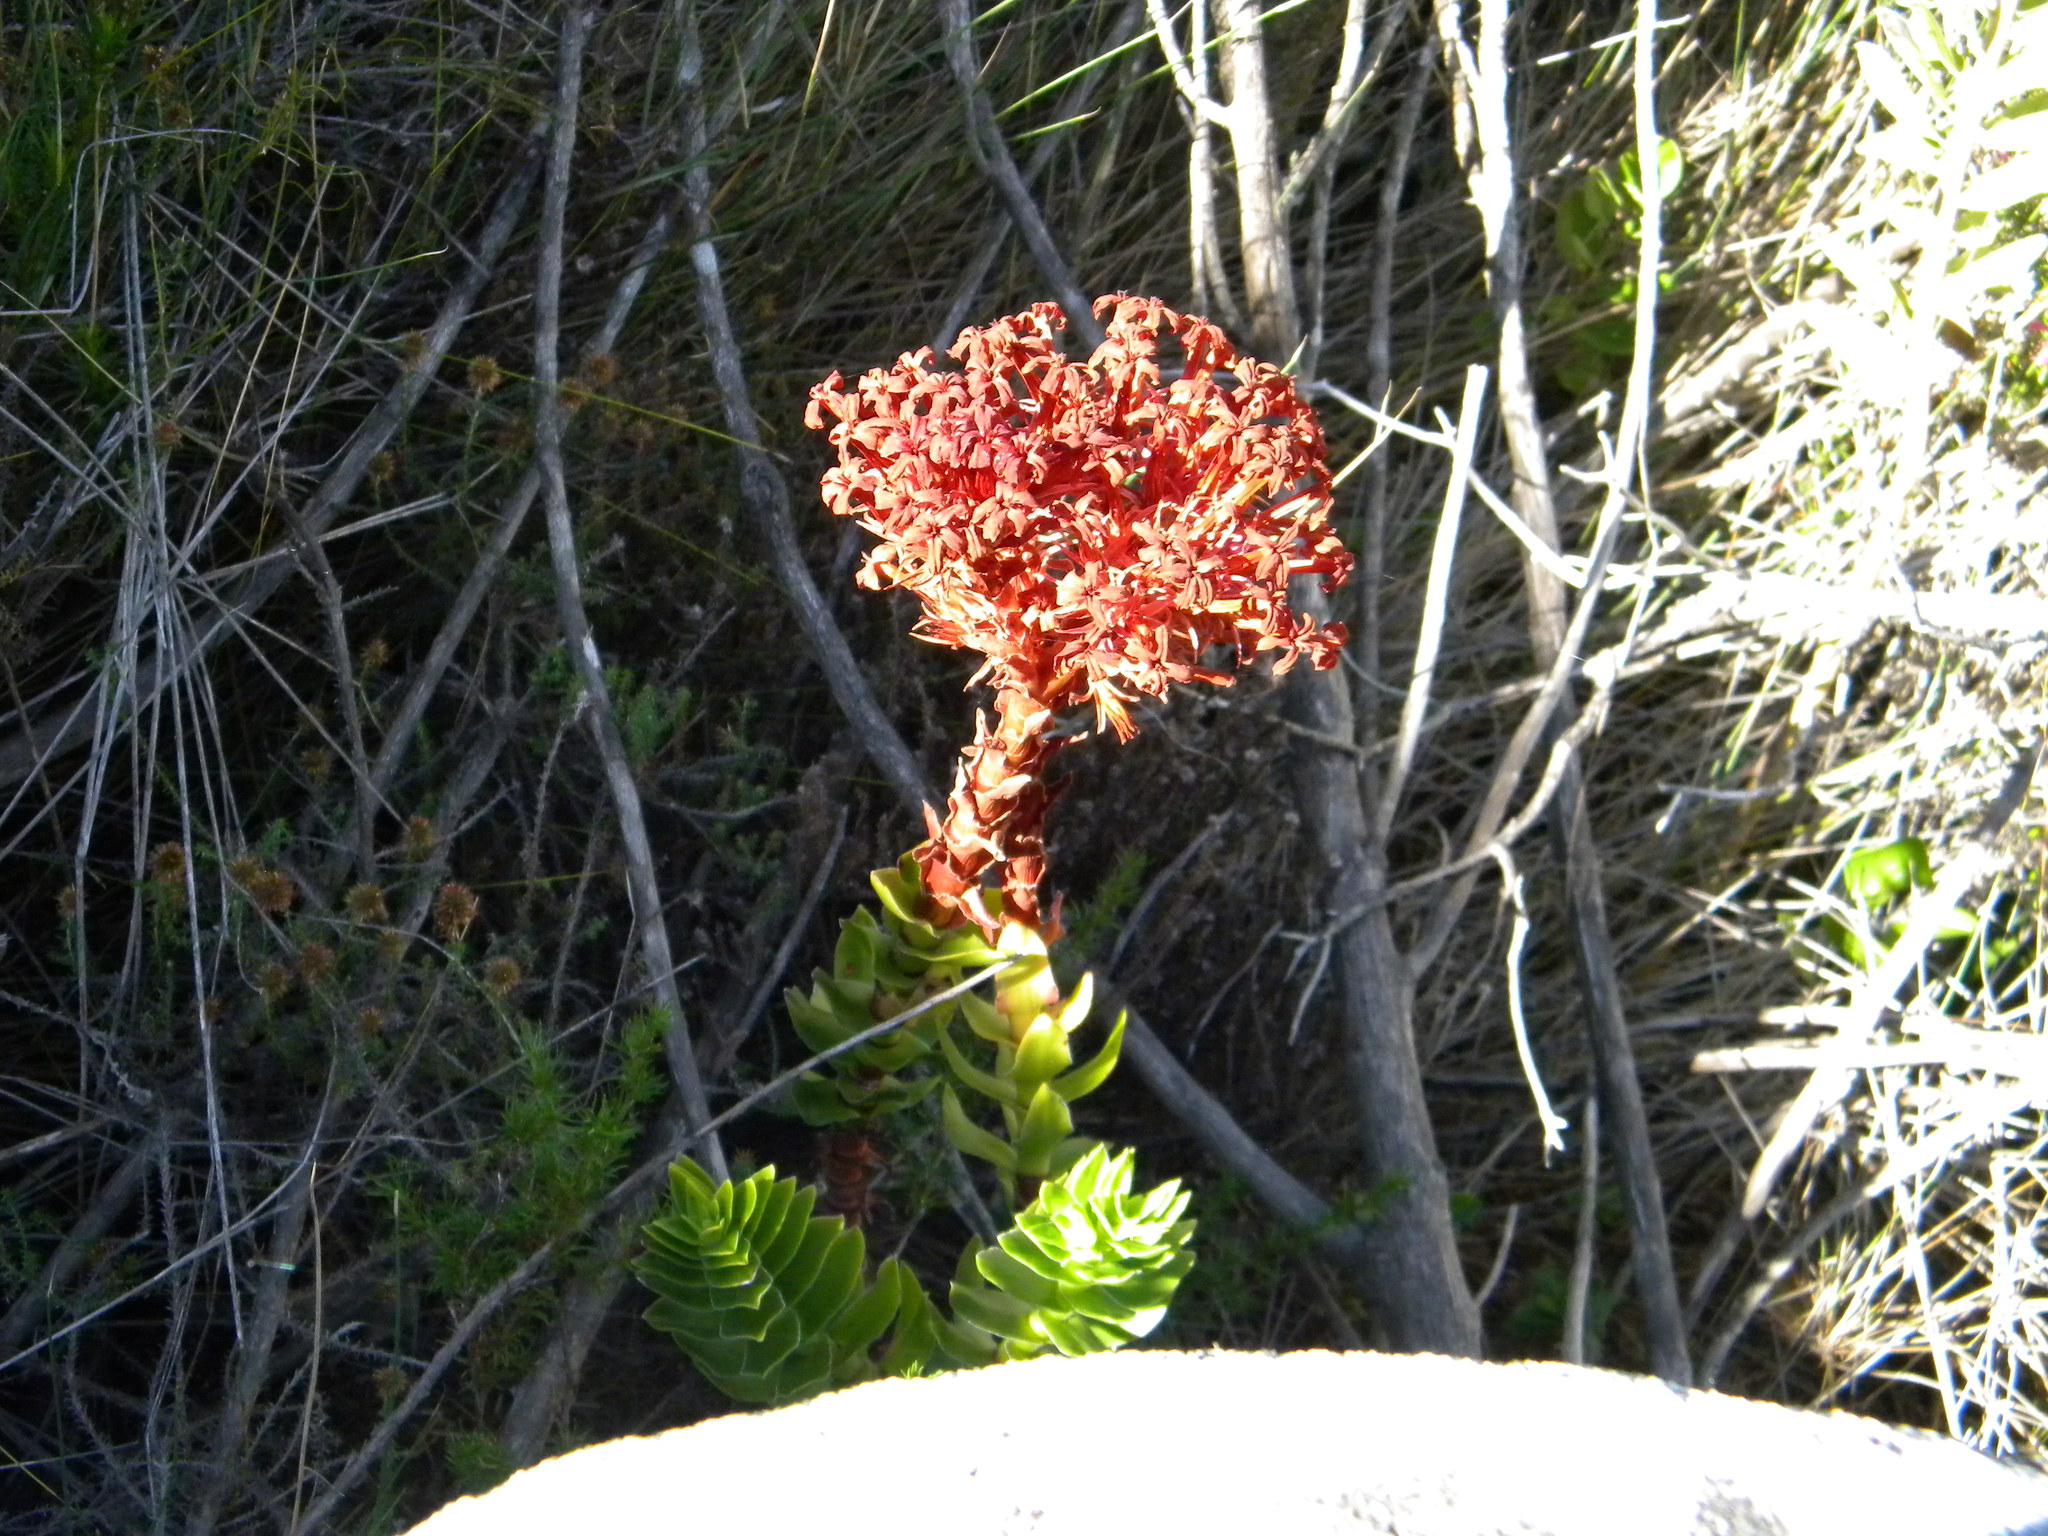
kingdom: Plantae
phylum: Tracheophyta
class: Magnoliopsida
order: Saxifragales
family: Crassulaceae
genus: Crassula
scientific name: Crassula coccinea
